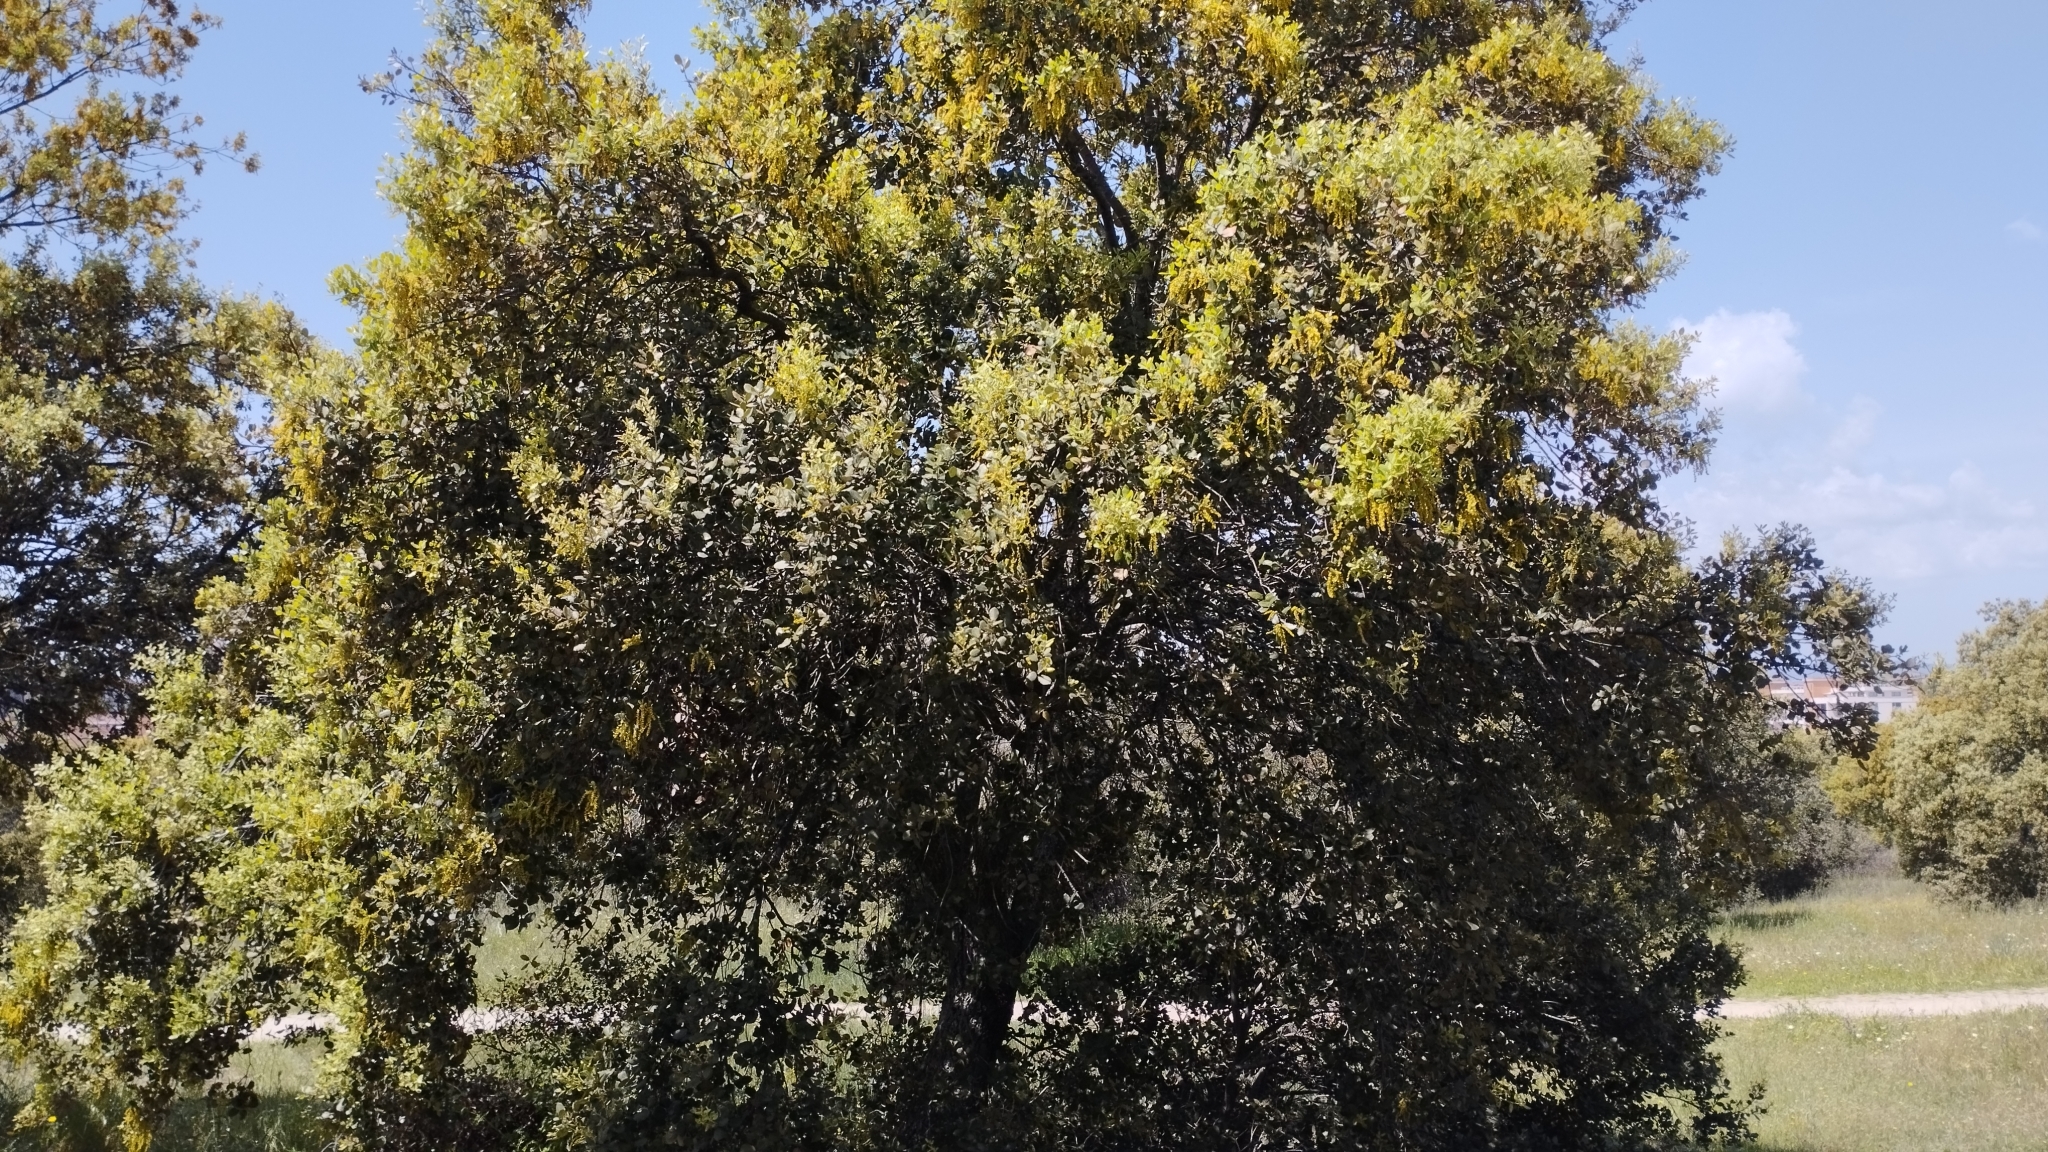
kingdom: Plantae
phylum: Tracheophyta
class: Magnoliopsida
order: Fagales
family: Fagaceae
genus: Quercus
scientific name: Quercus rotundifolia
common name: Holm oak
